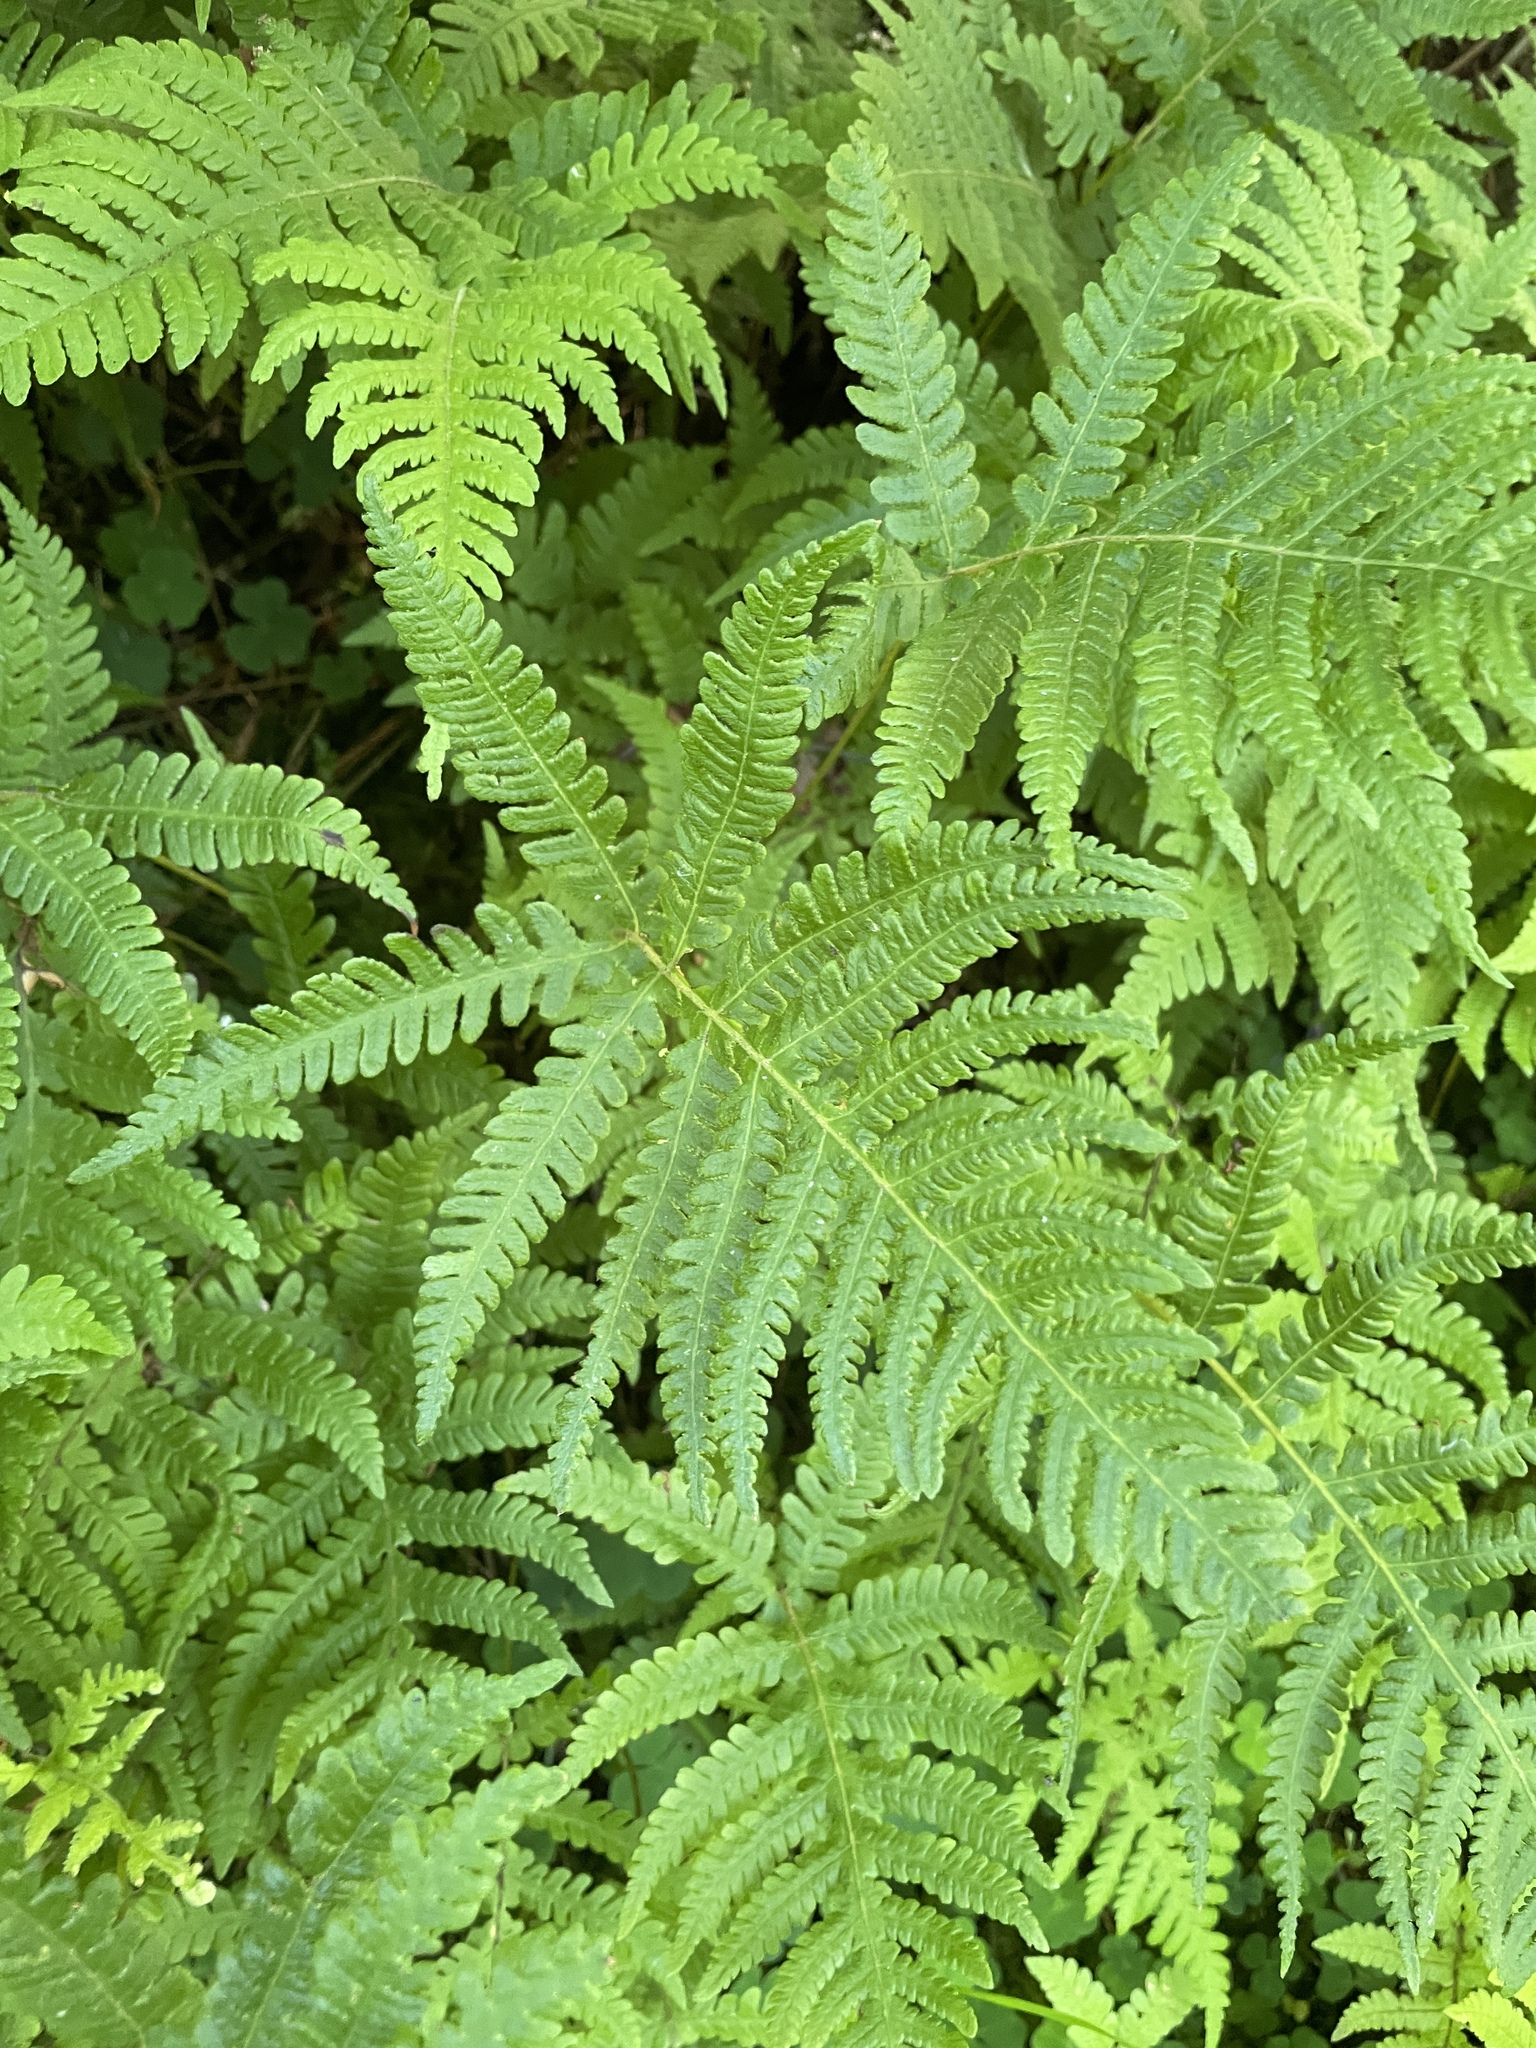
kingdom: Plantae
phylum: Tracheophyta
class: Polypodiopsida
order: Polypodiales
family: Thelypteridaceae
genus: Phegopteris
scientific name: Phegopteris connectilis
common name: Beech fern
